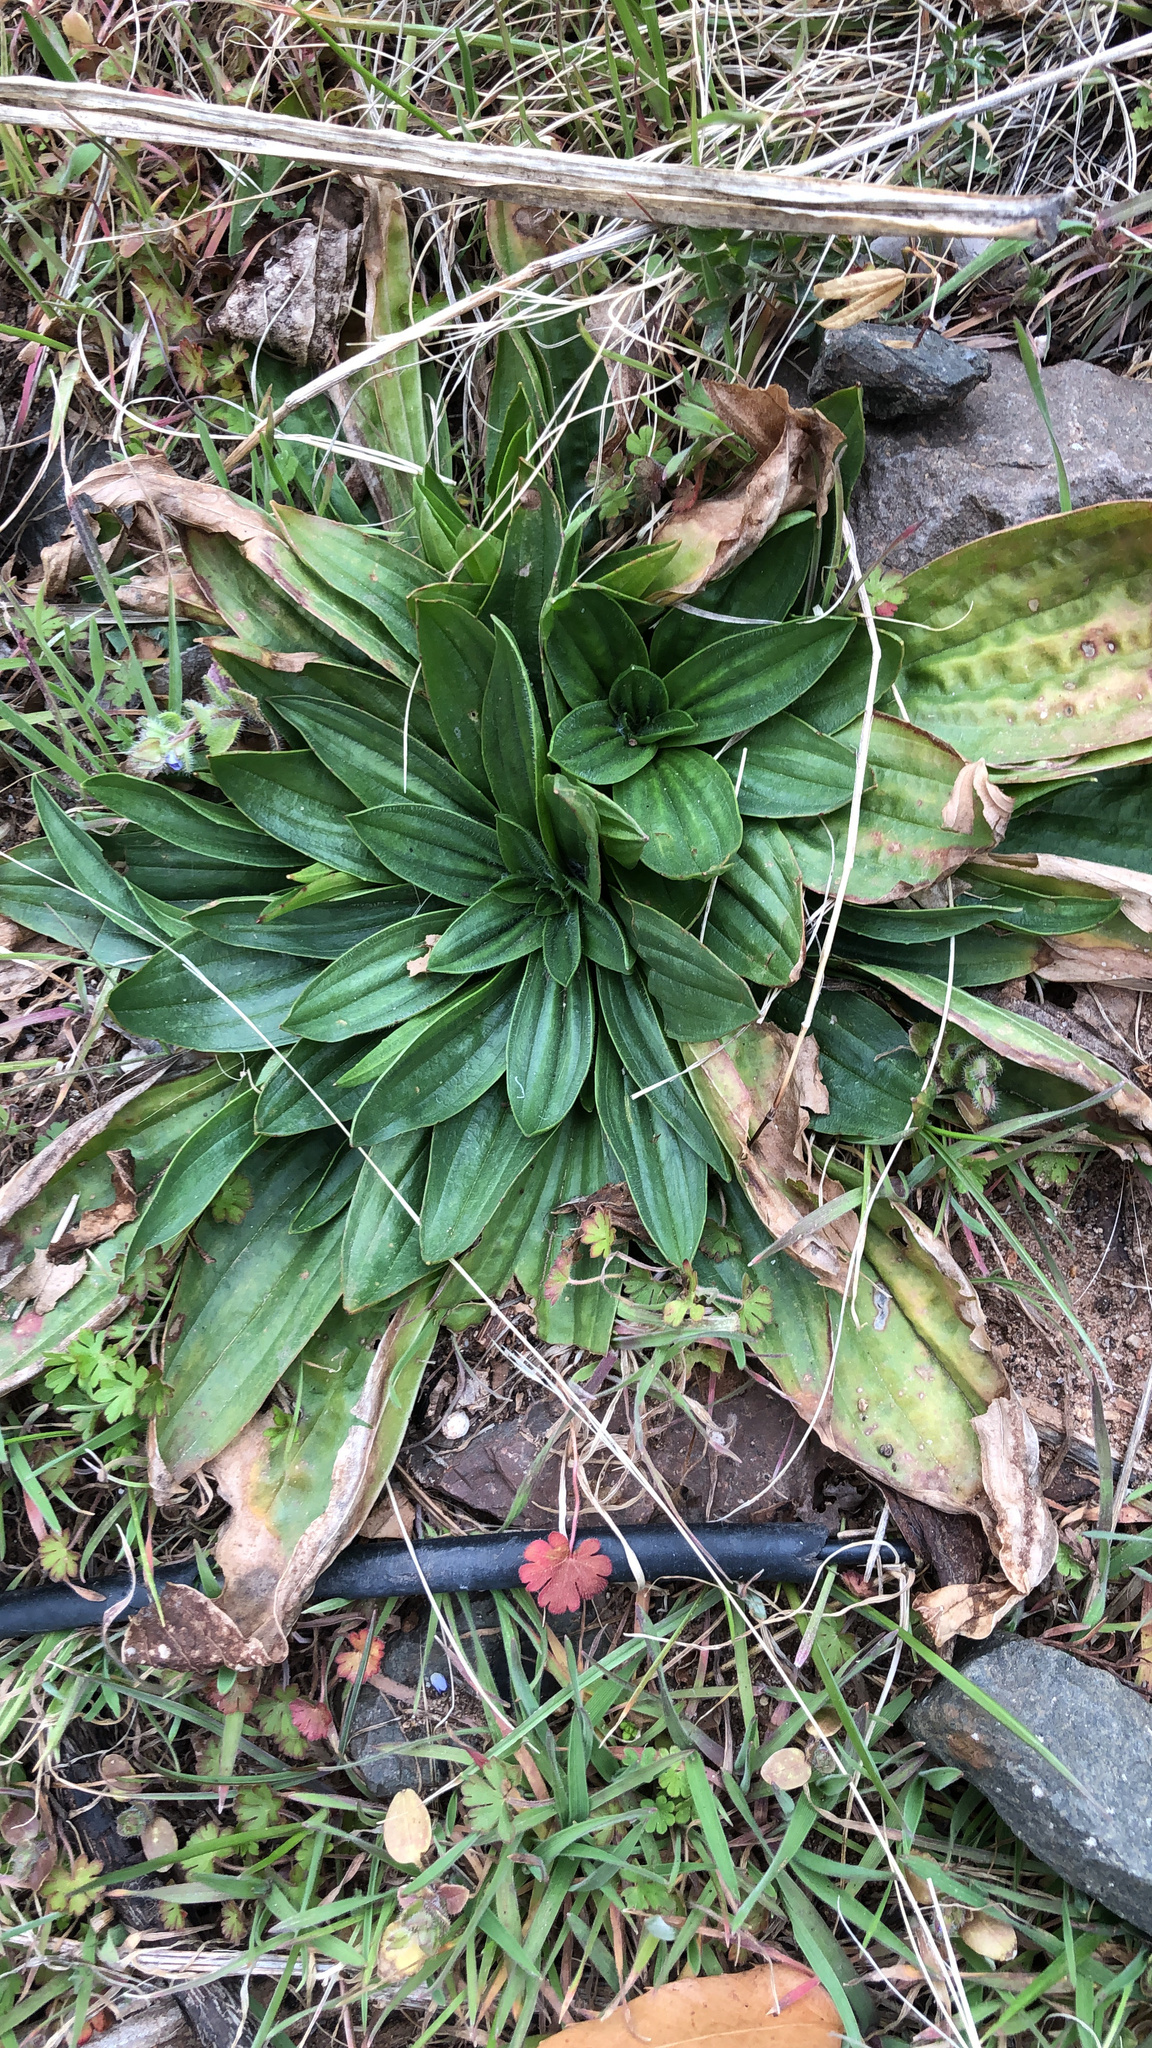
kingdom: Plantae
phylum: Tracheophyta
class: Magnoliopsida
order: Lamiales
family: Plantaginaceae
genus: Plantago
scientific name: Plantago lanceolata
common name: Ribwort plantain
